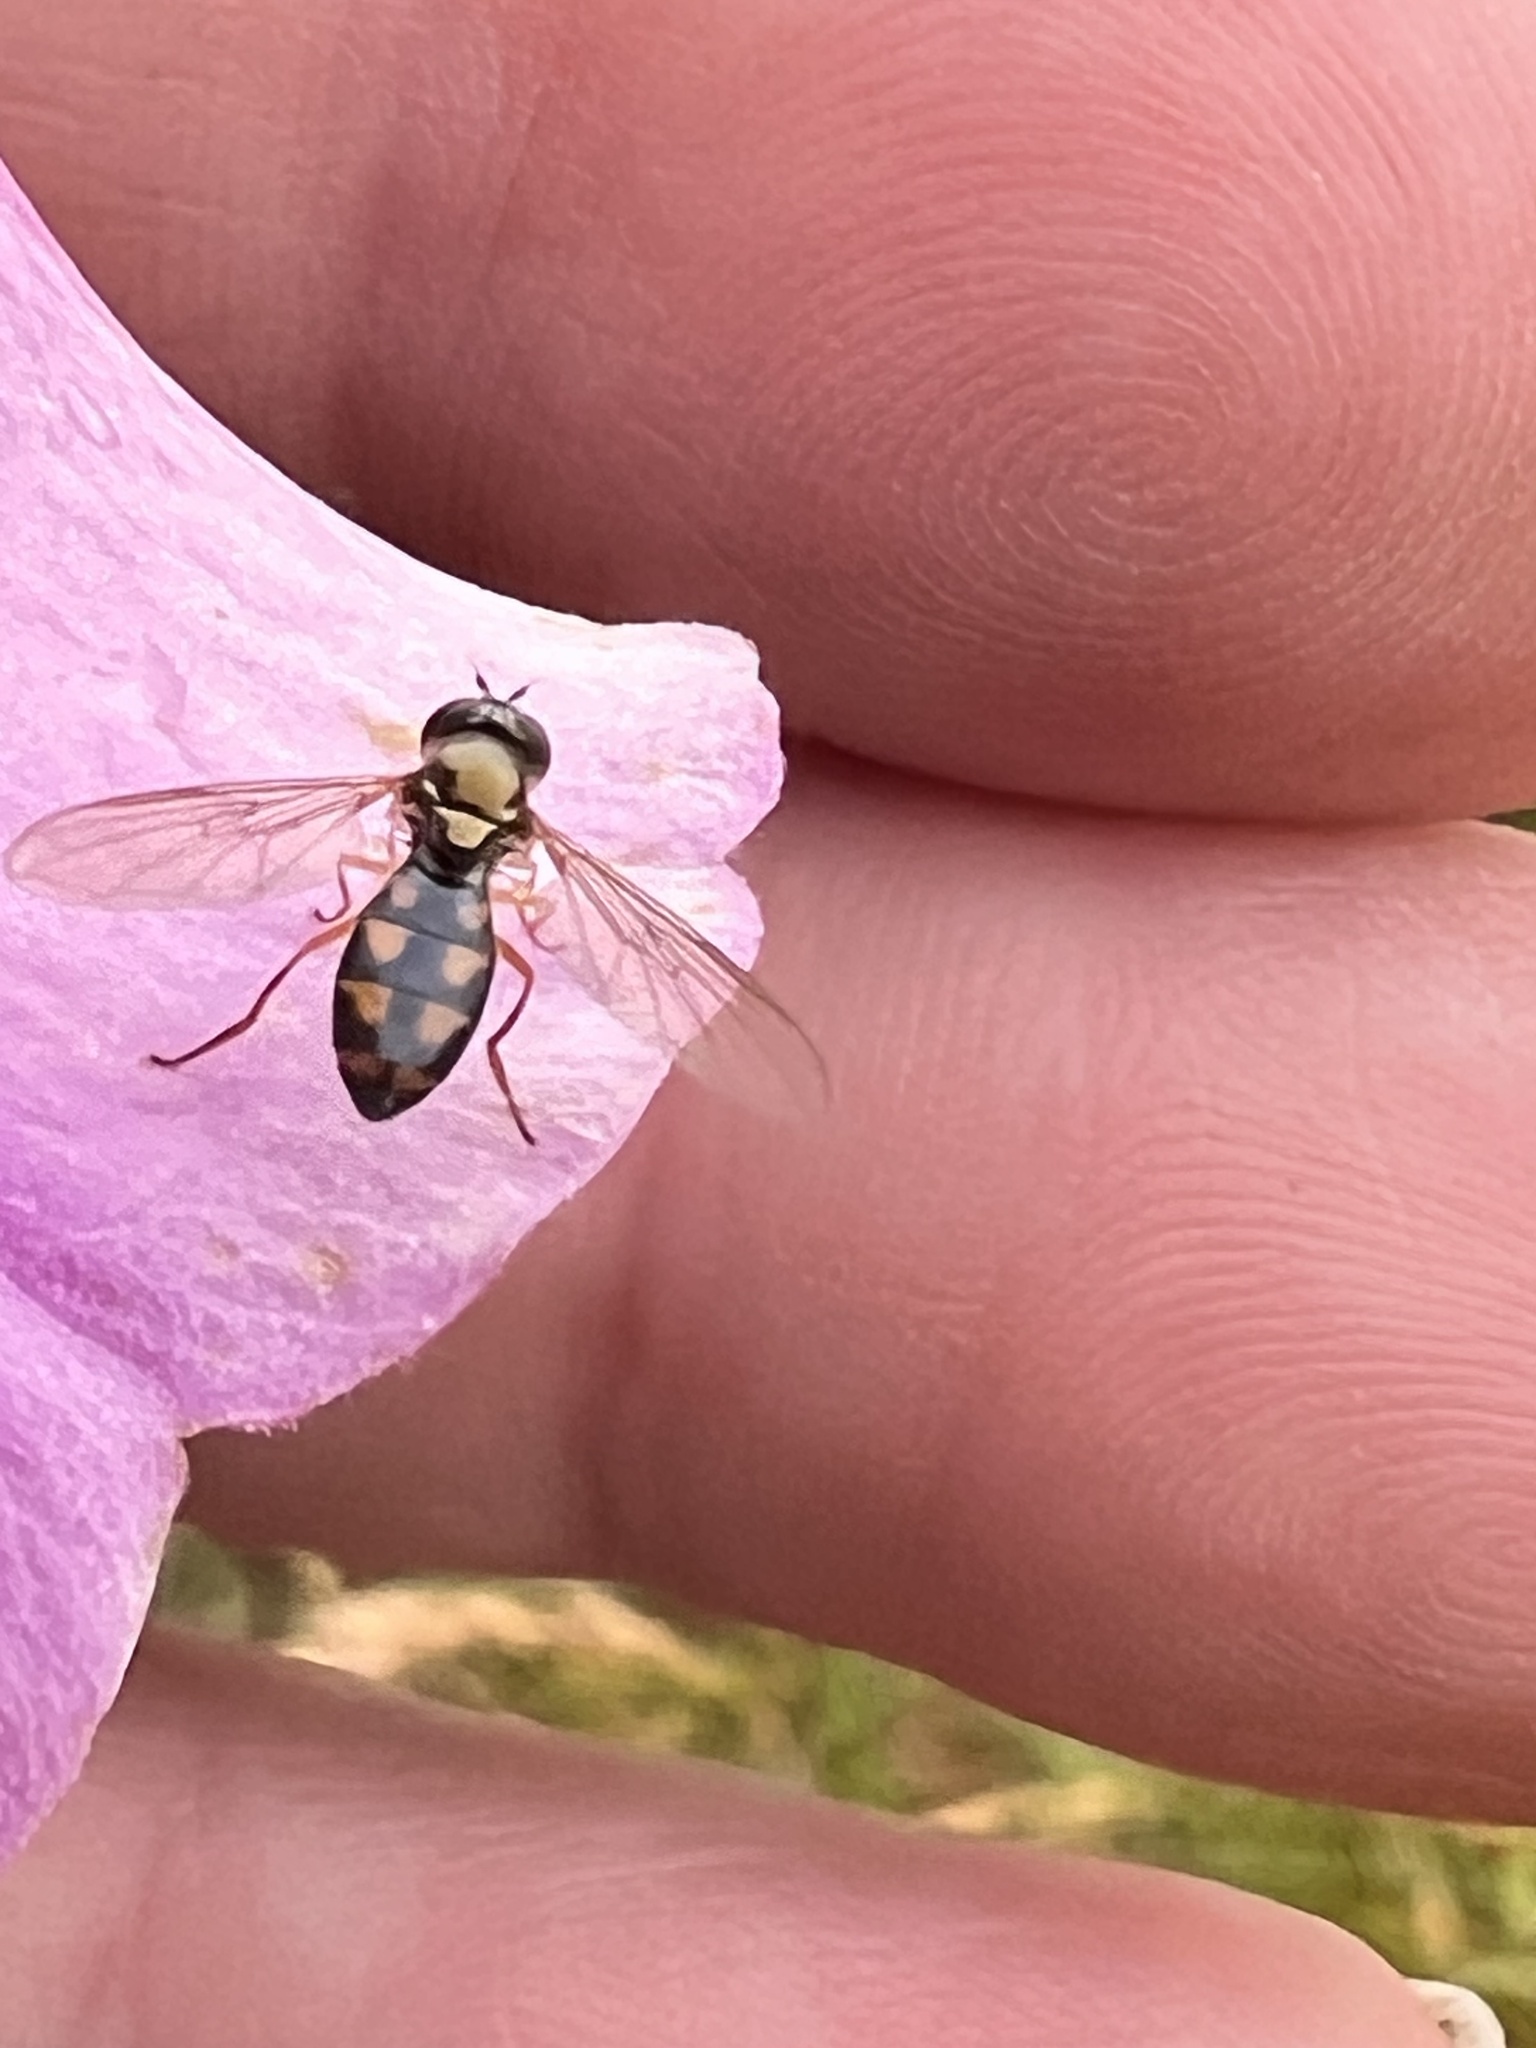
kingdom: Animalia
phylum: Arthropoda
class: Insecta
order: Diptera
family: Syrphidae
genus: Melanostoma
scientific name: Melanostoma fasciatum
